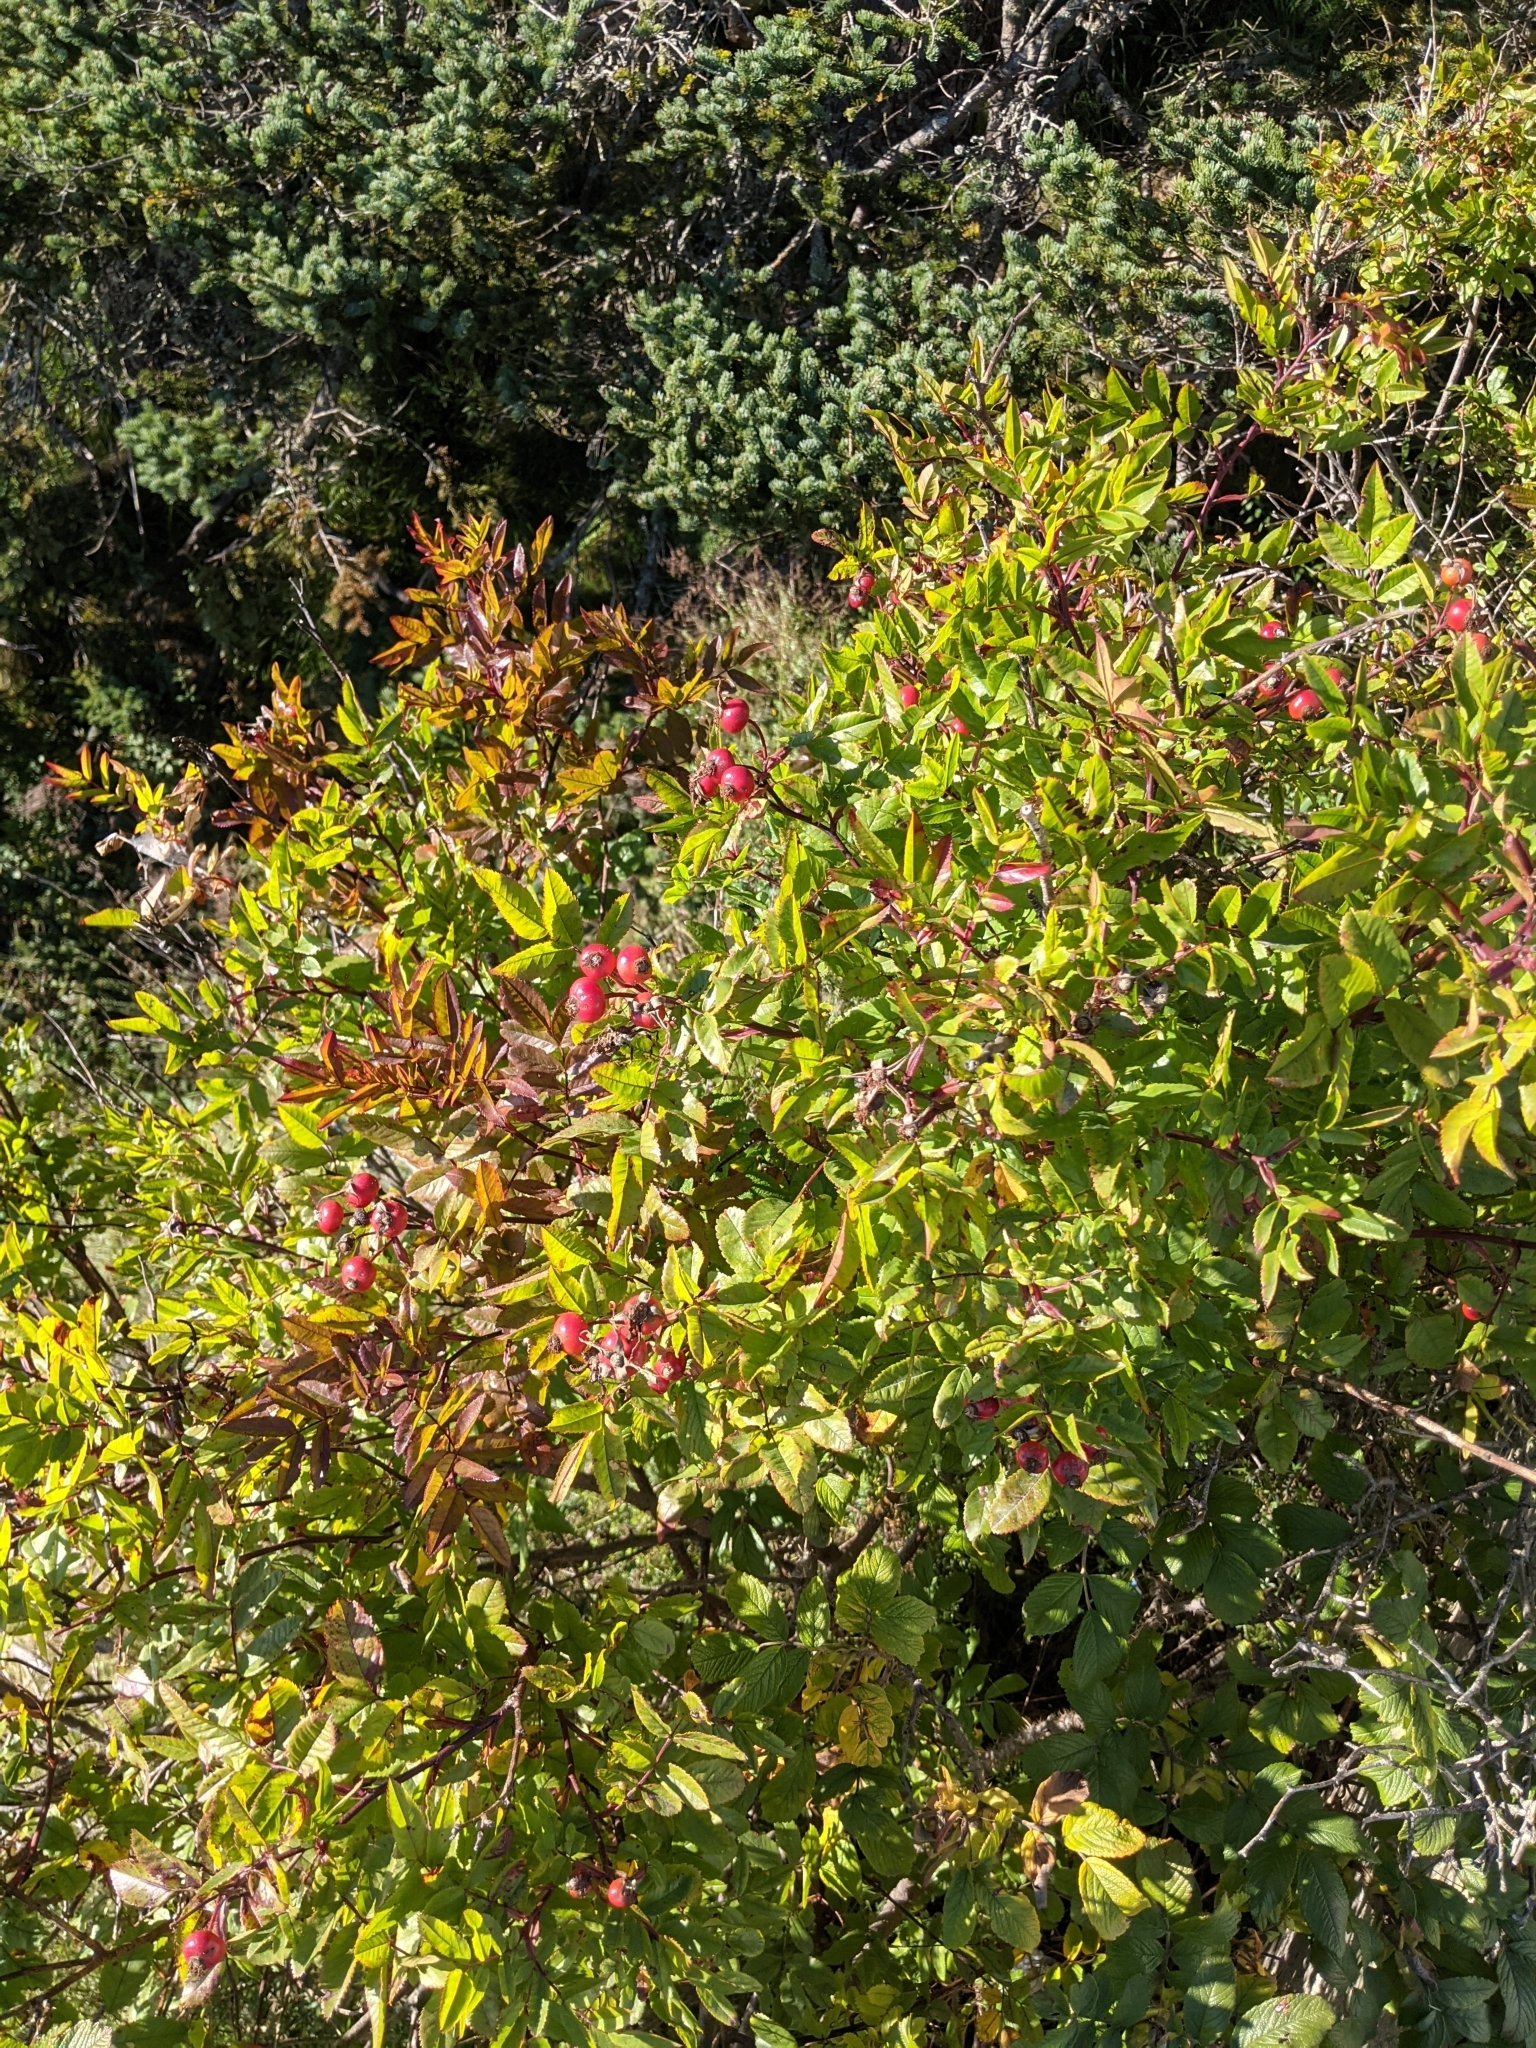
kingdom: Plantae
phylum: Tracheophyta
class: Magnoliopsida
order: Rosales
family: Rosaceae
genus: Rosa
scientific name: Rosa rugosa
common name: Japanese rose
